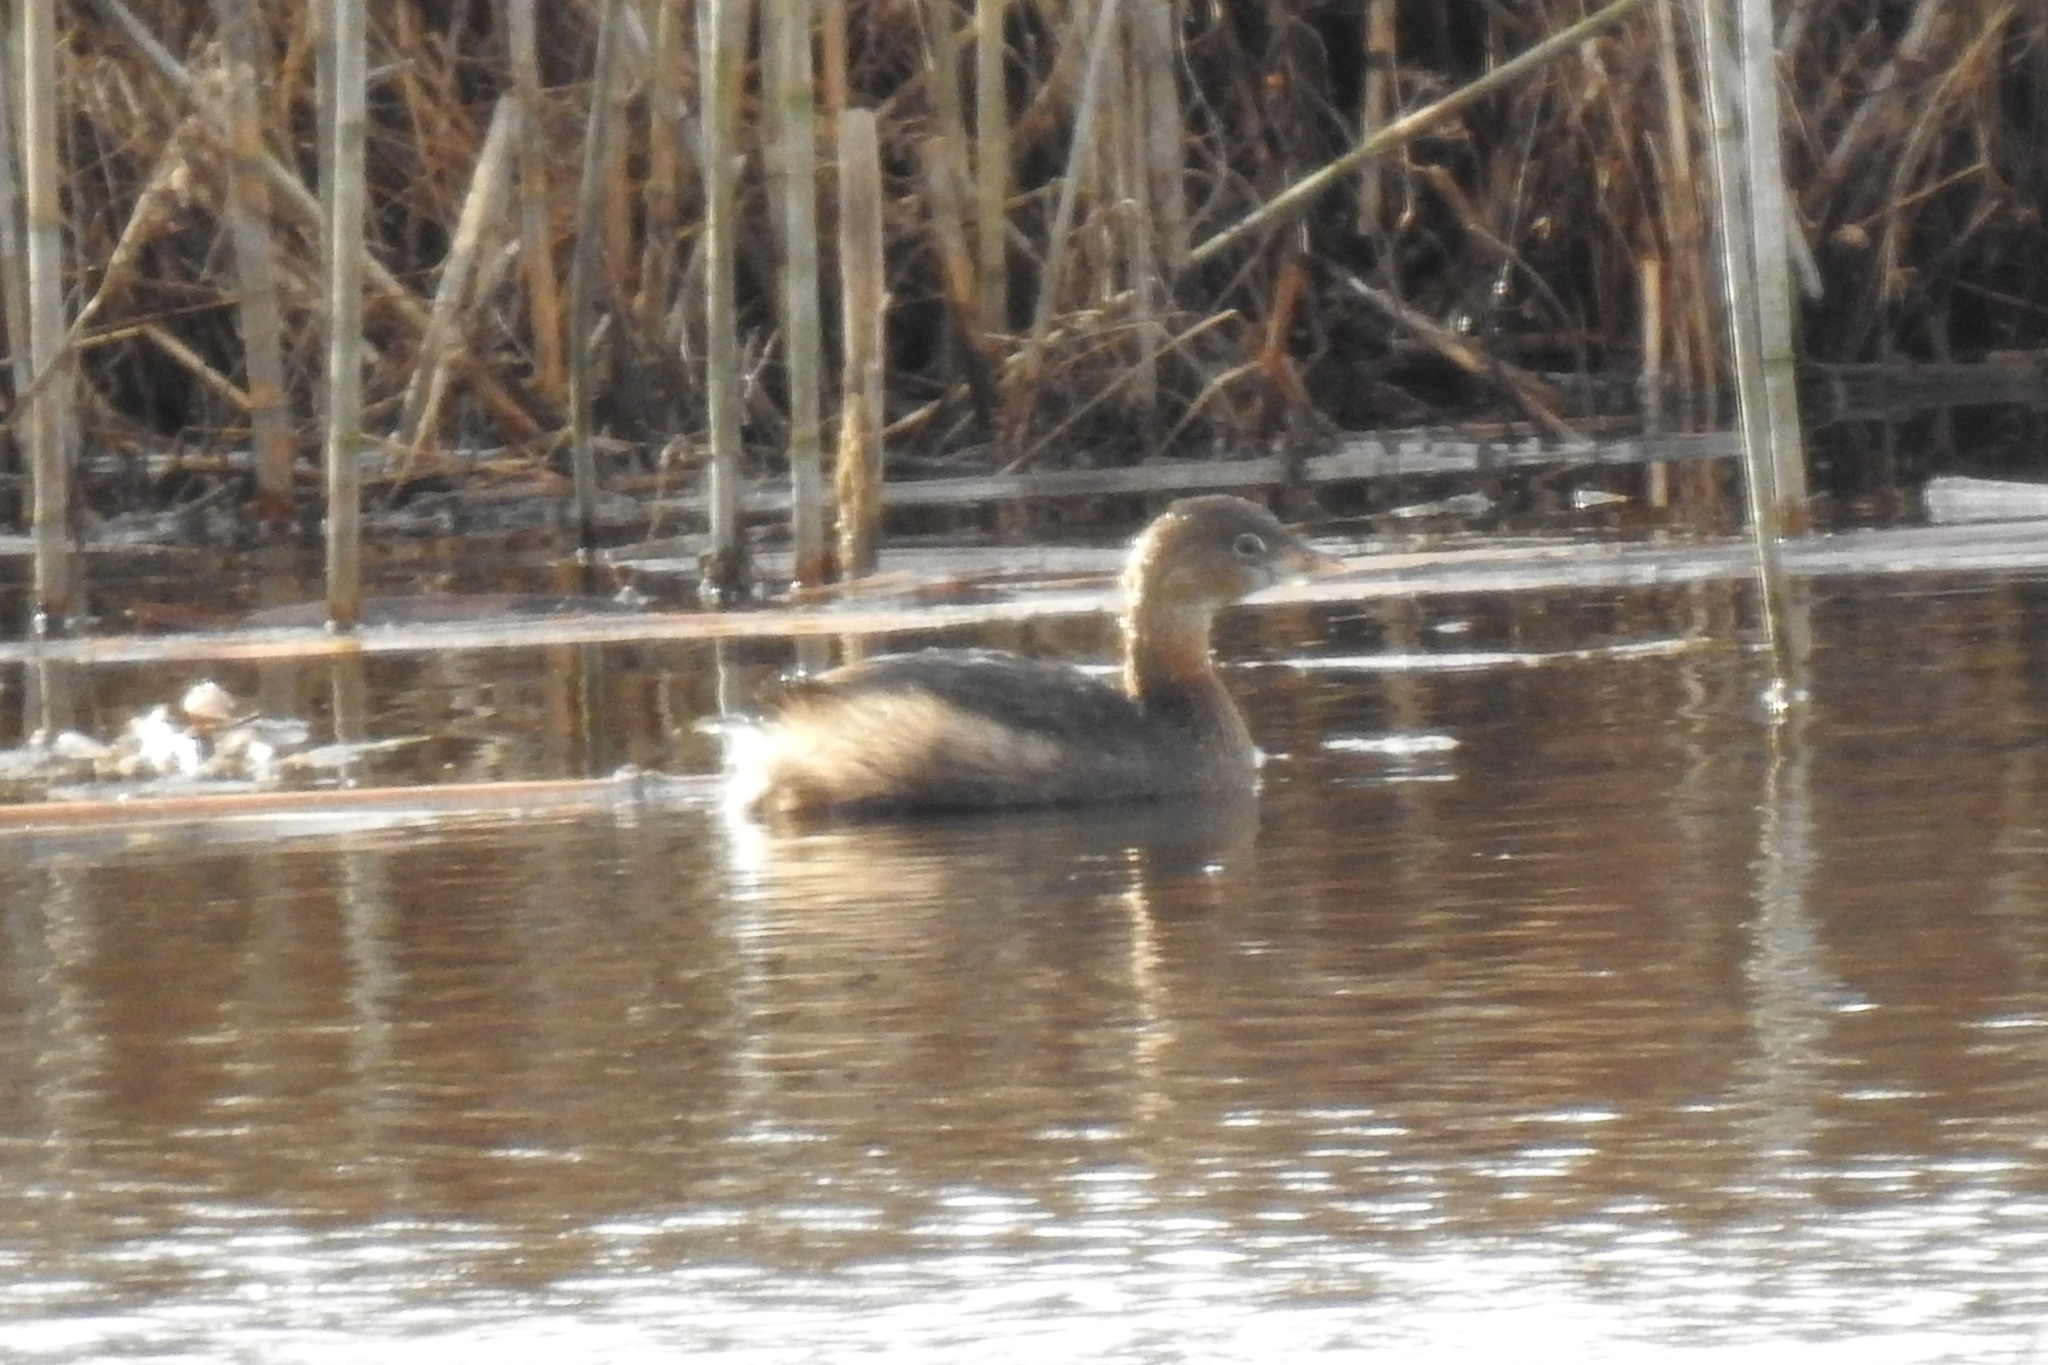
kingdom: Animalia
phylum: Chordata
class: Aves
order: Podicipediformes
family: Podicipedidae
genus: Podilymbus
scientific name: Podilymbus podiceps
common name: Pied-billed grebe
